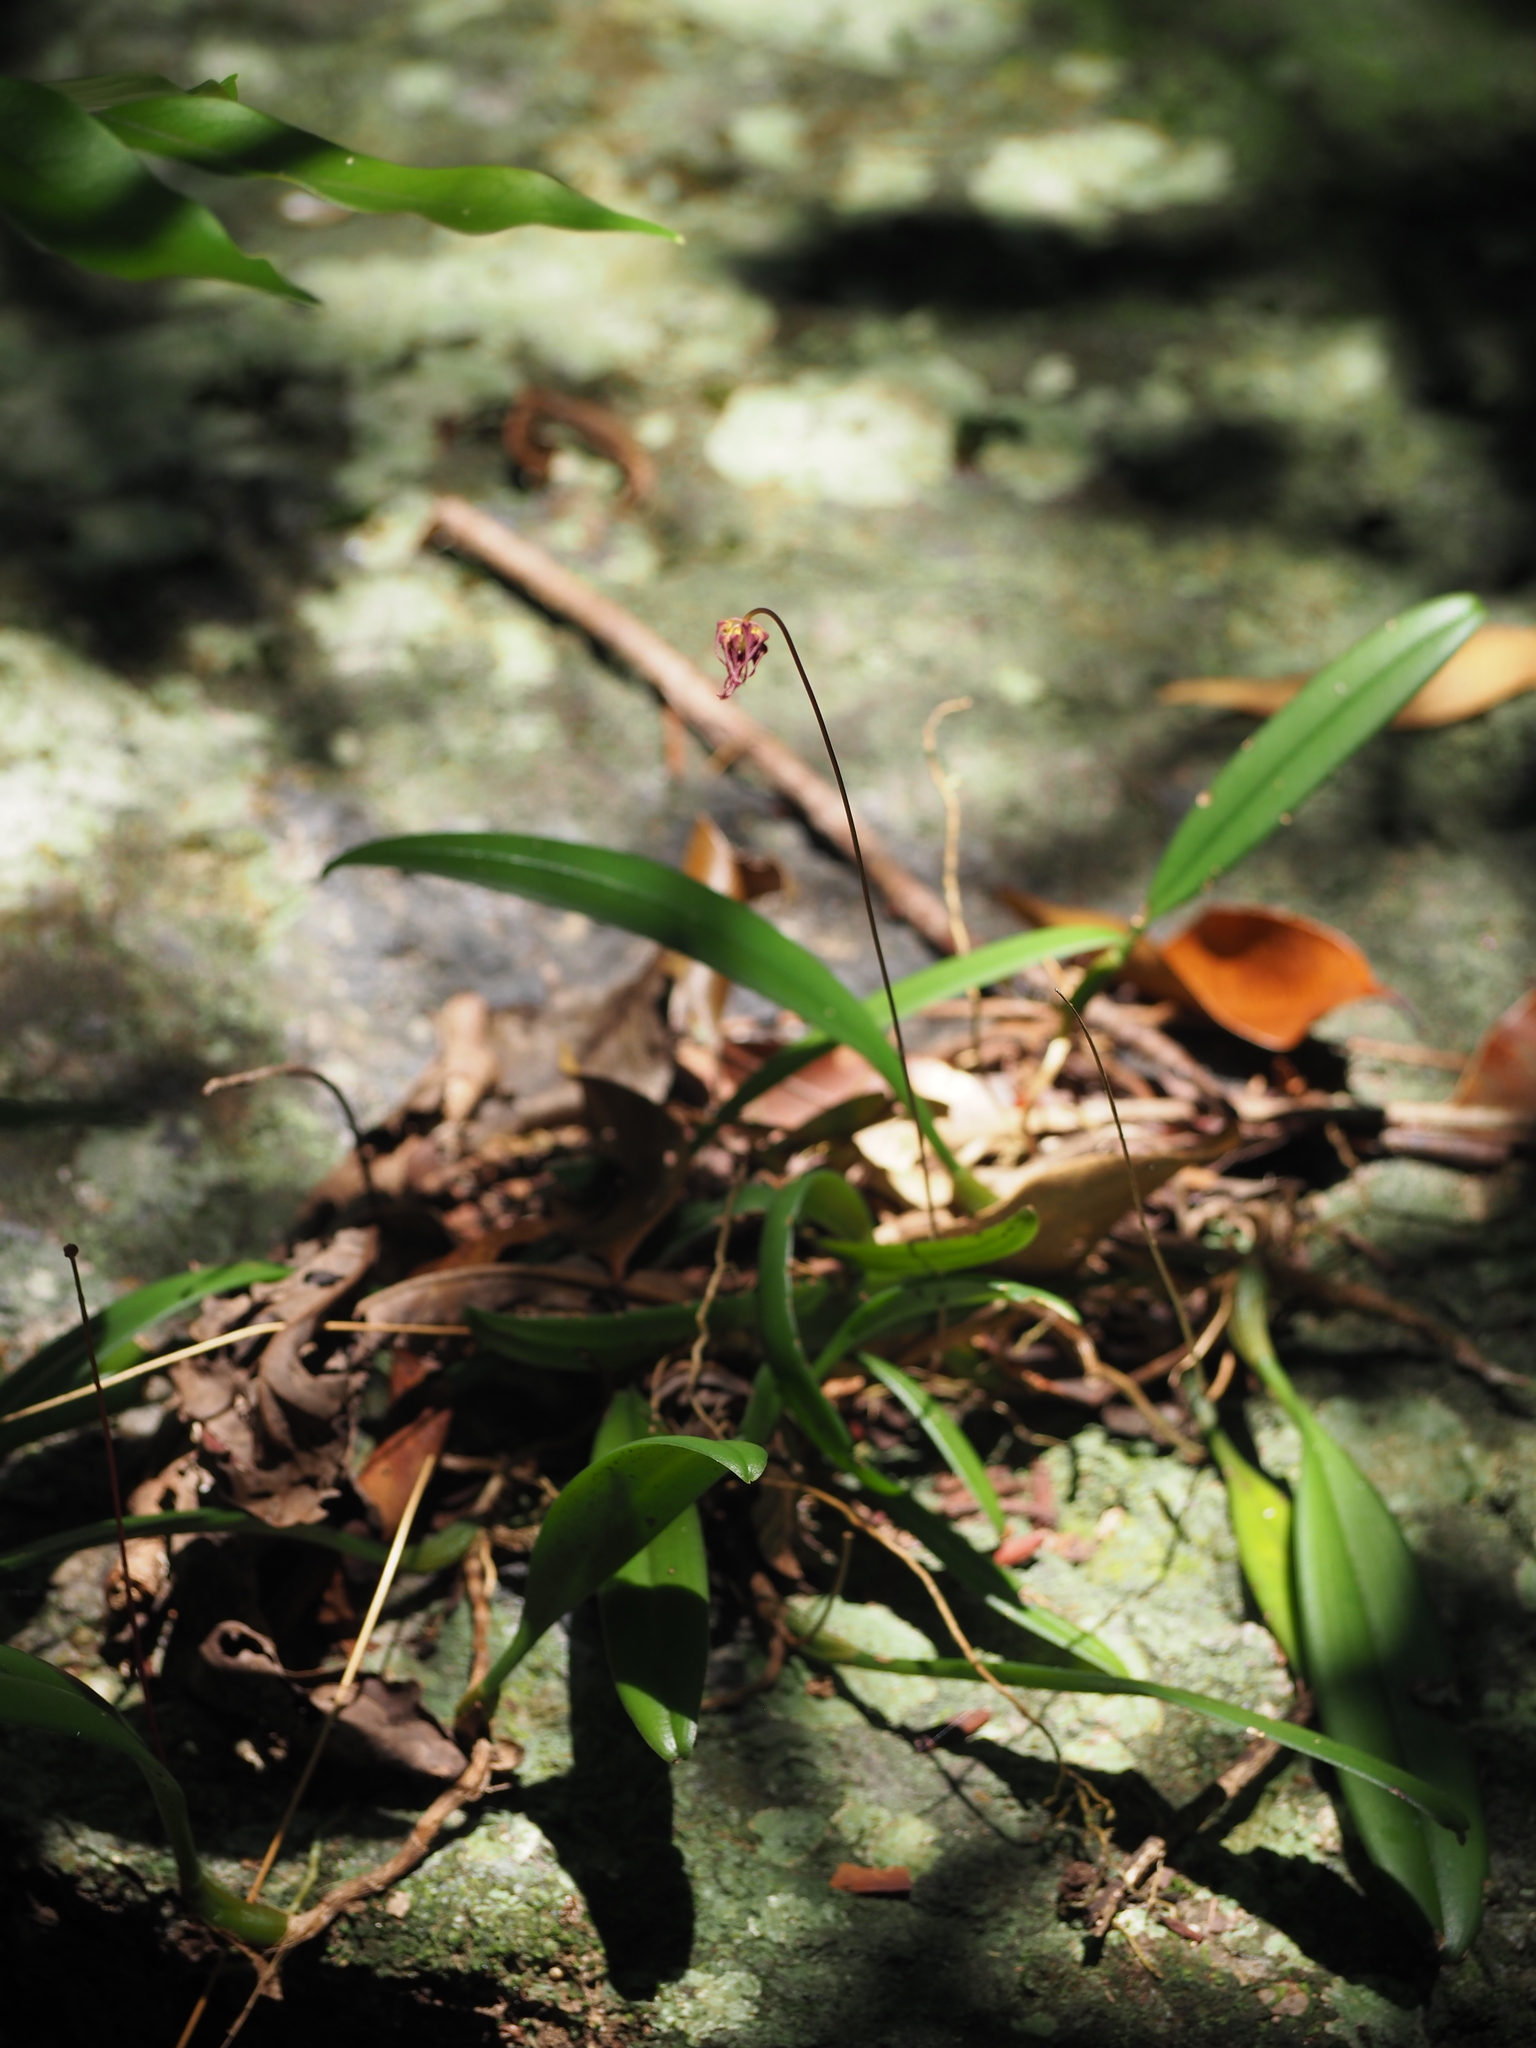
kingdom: Plantae
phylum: Tracheophyta
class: Liliopsida
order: Asparagales
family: Orchidaceae
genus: Bulbophyllum
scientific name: Bulbophyllum gracillimum
